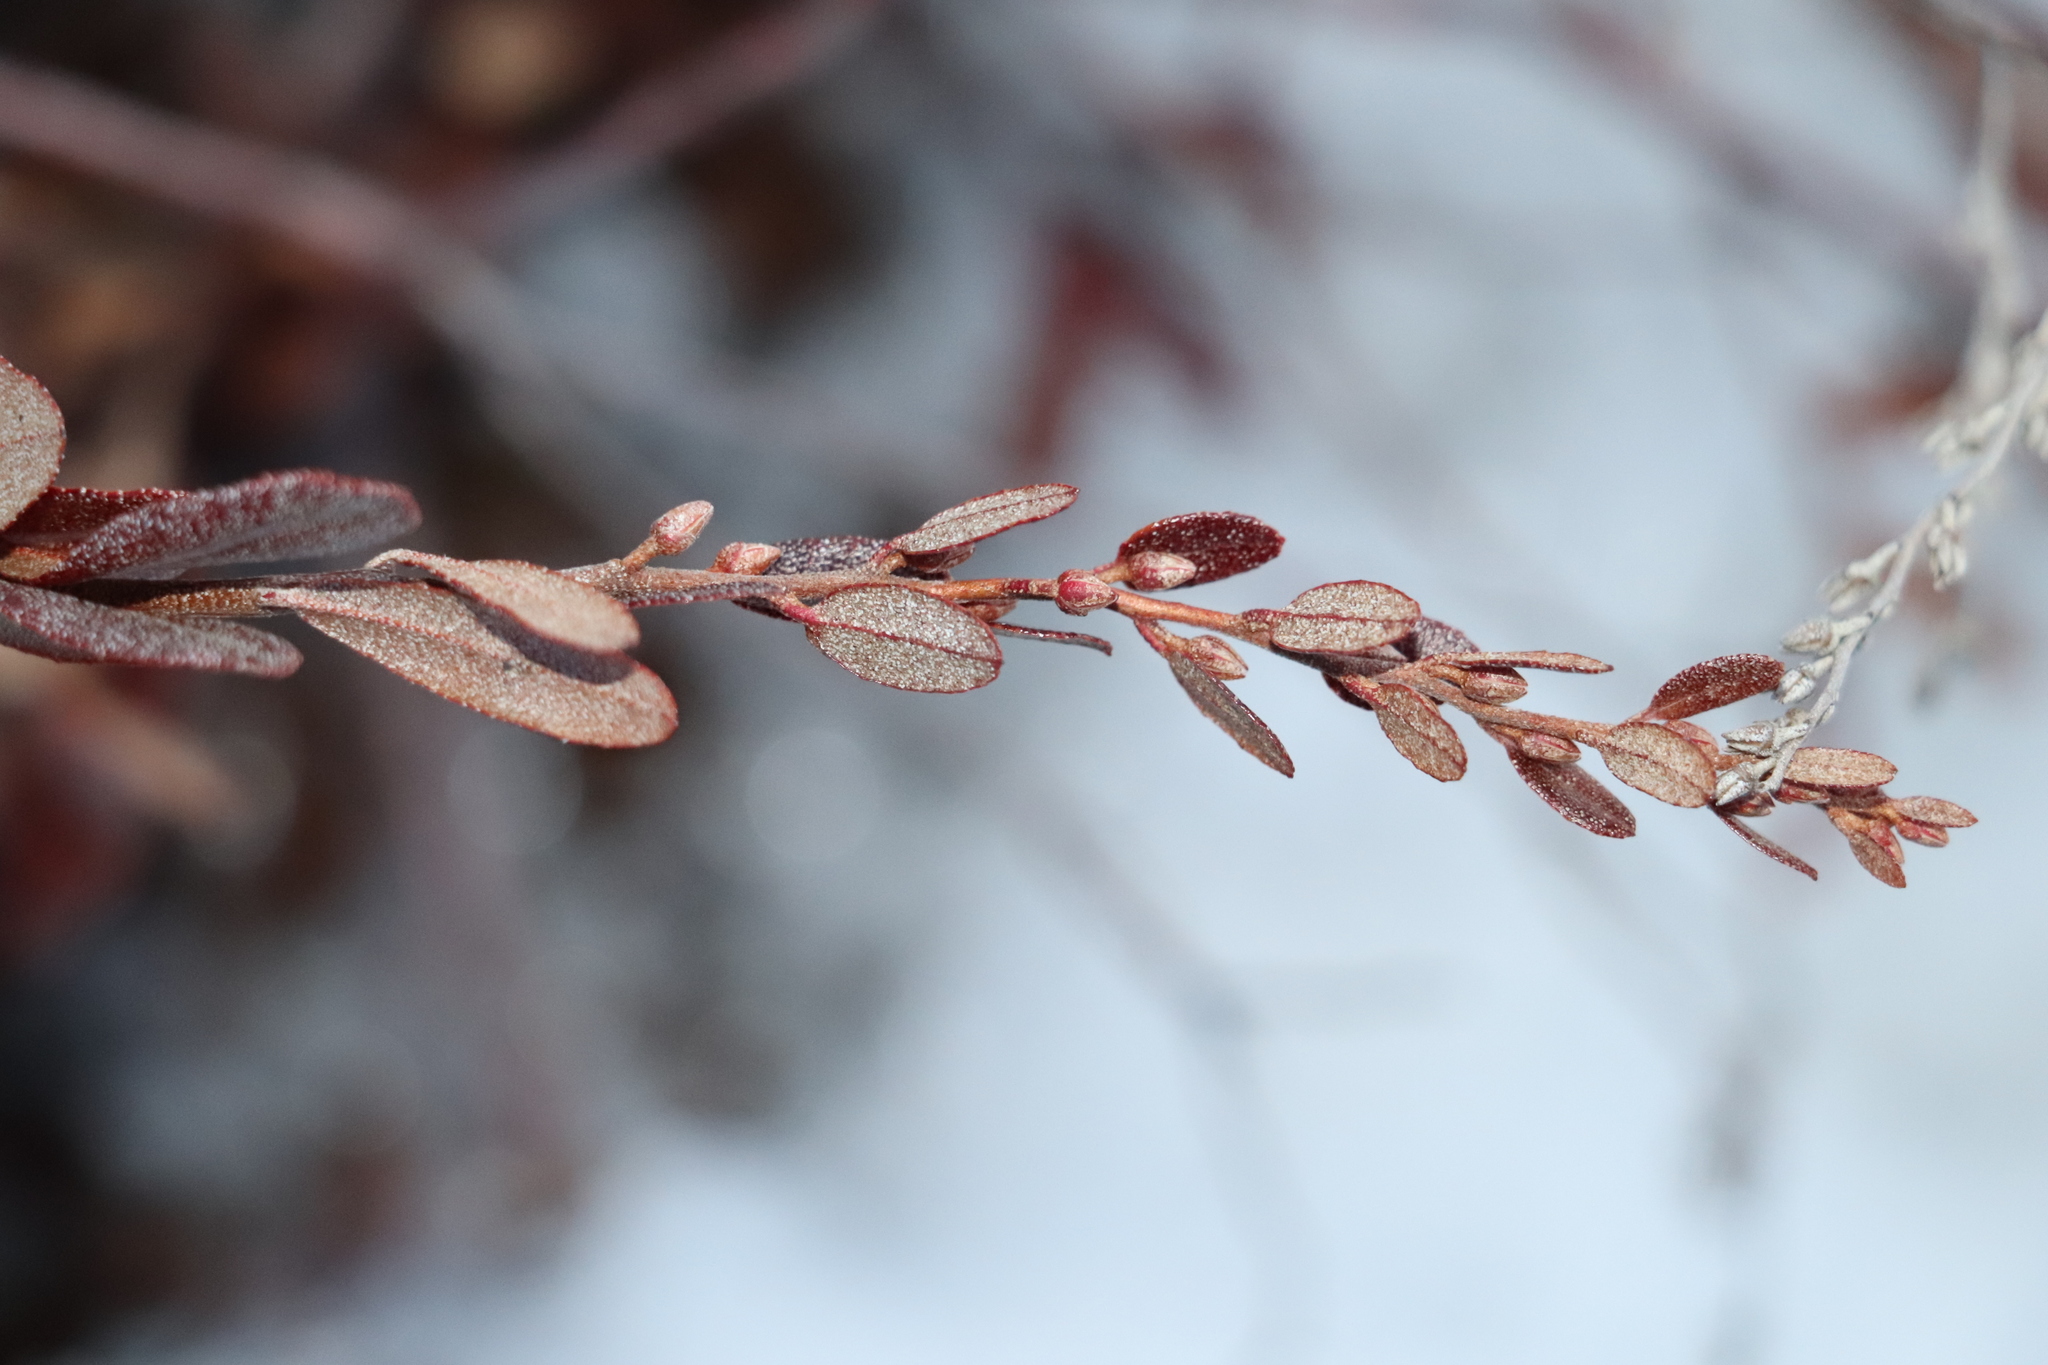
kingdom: Plantae
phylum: Tracheophyta
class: Magnoliopsida
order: Ericales
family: Ericaceae
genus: Chamaedaphne
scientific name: Chamaedaphne calyculata
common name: Leatherleaf
